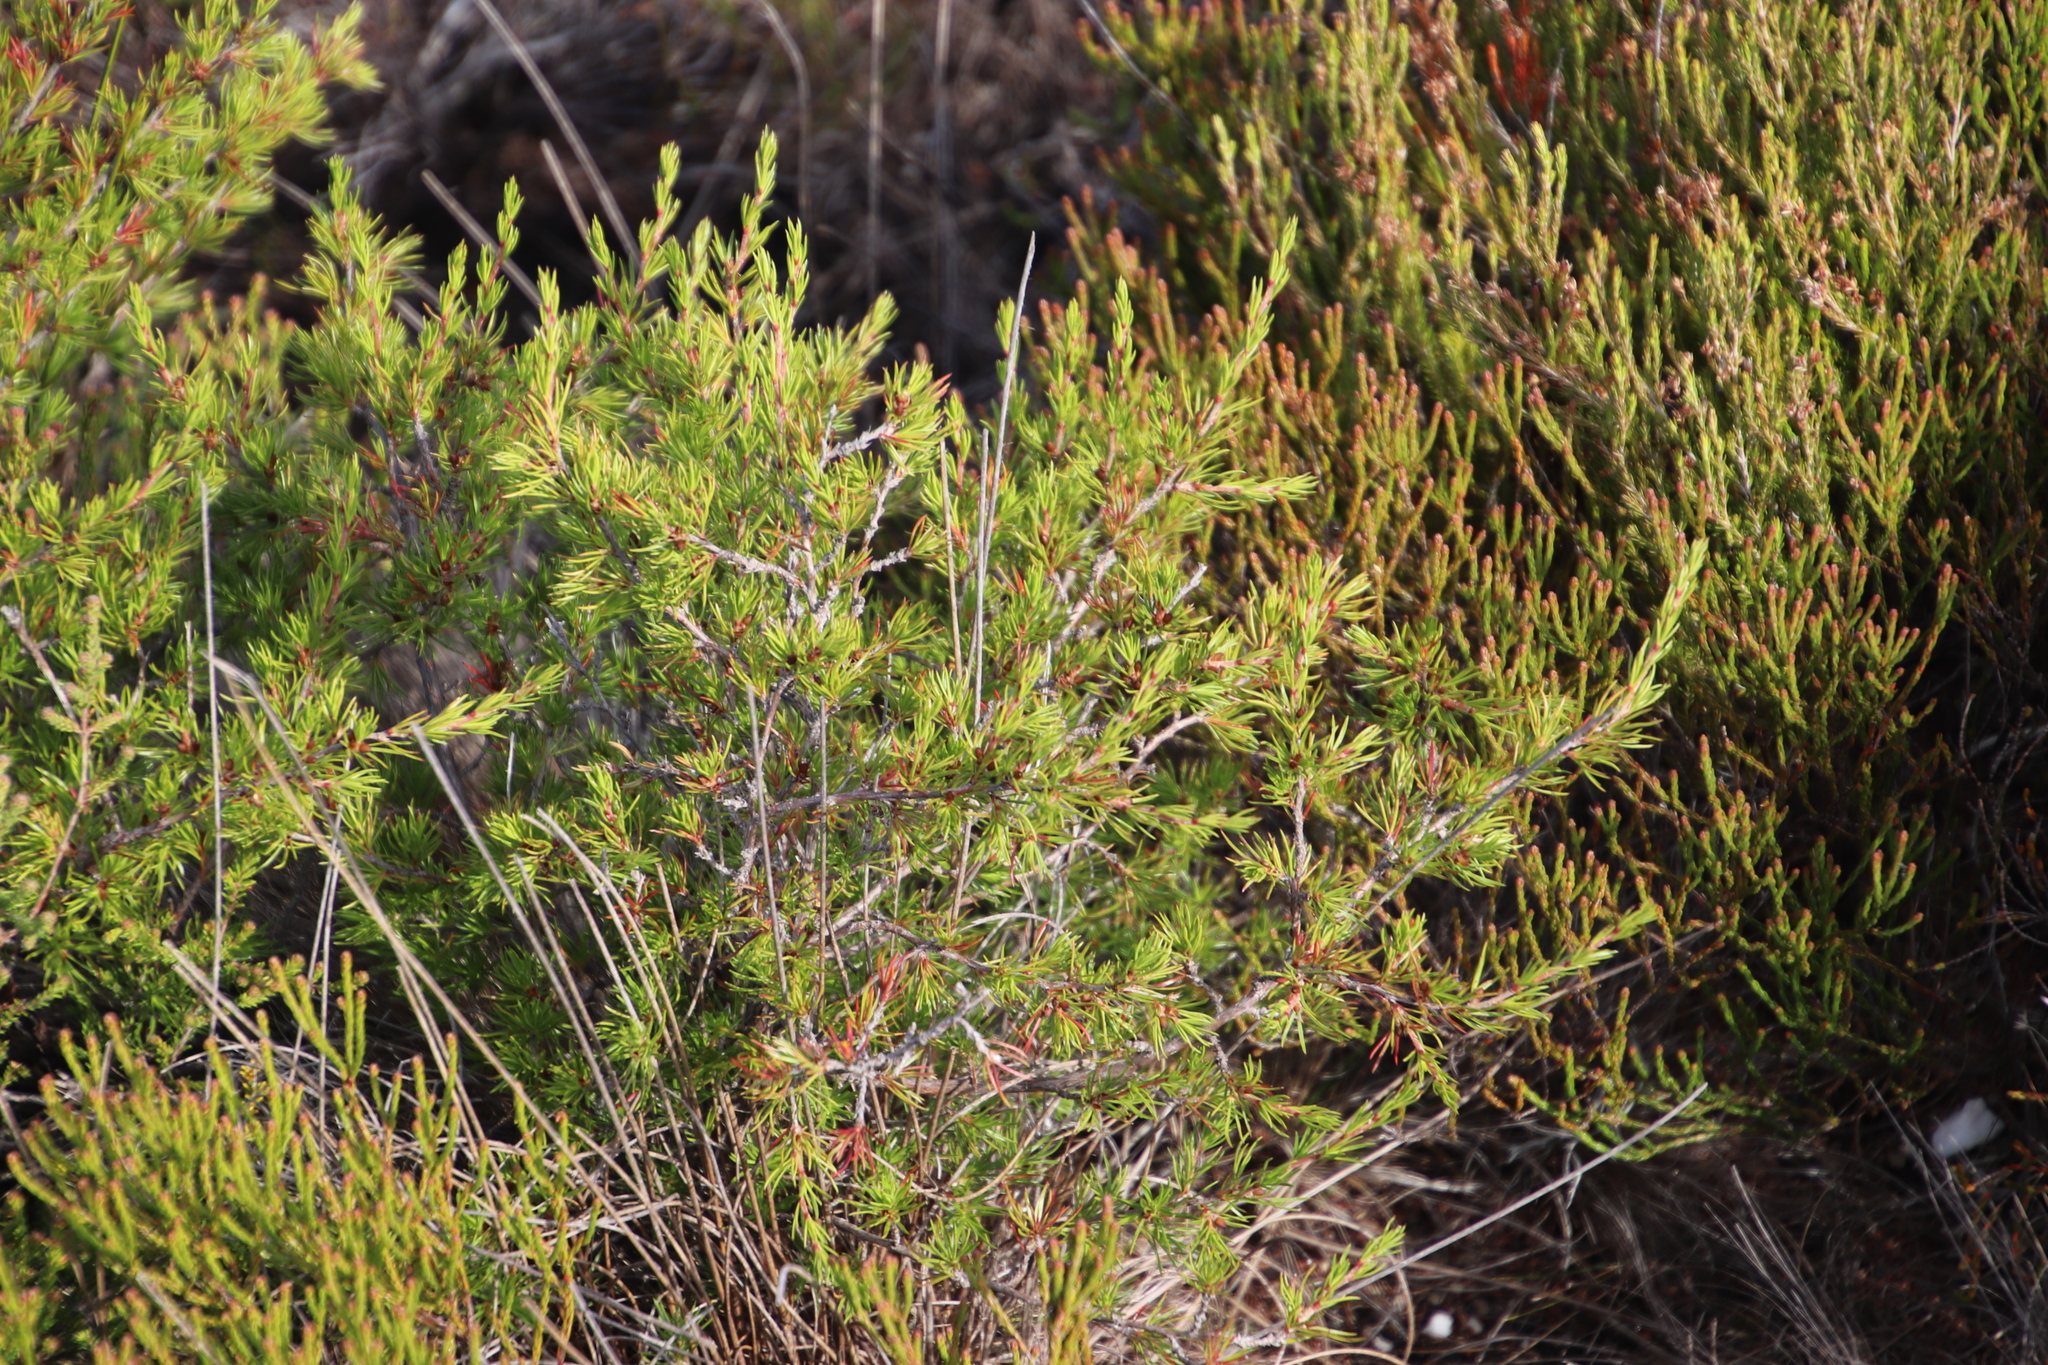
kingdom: Plantae
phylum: Tracheophyta
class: Magnoliopsida
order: Rosales
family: Rosaceae
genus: Cliffortia
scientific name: Cliffortia atrata
